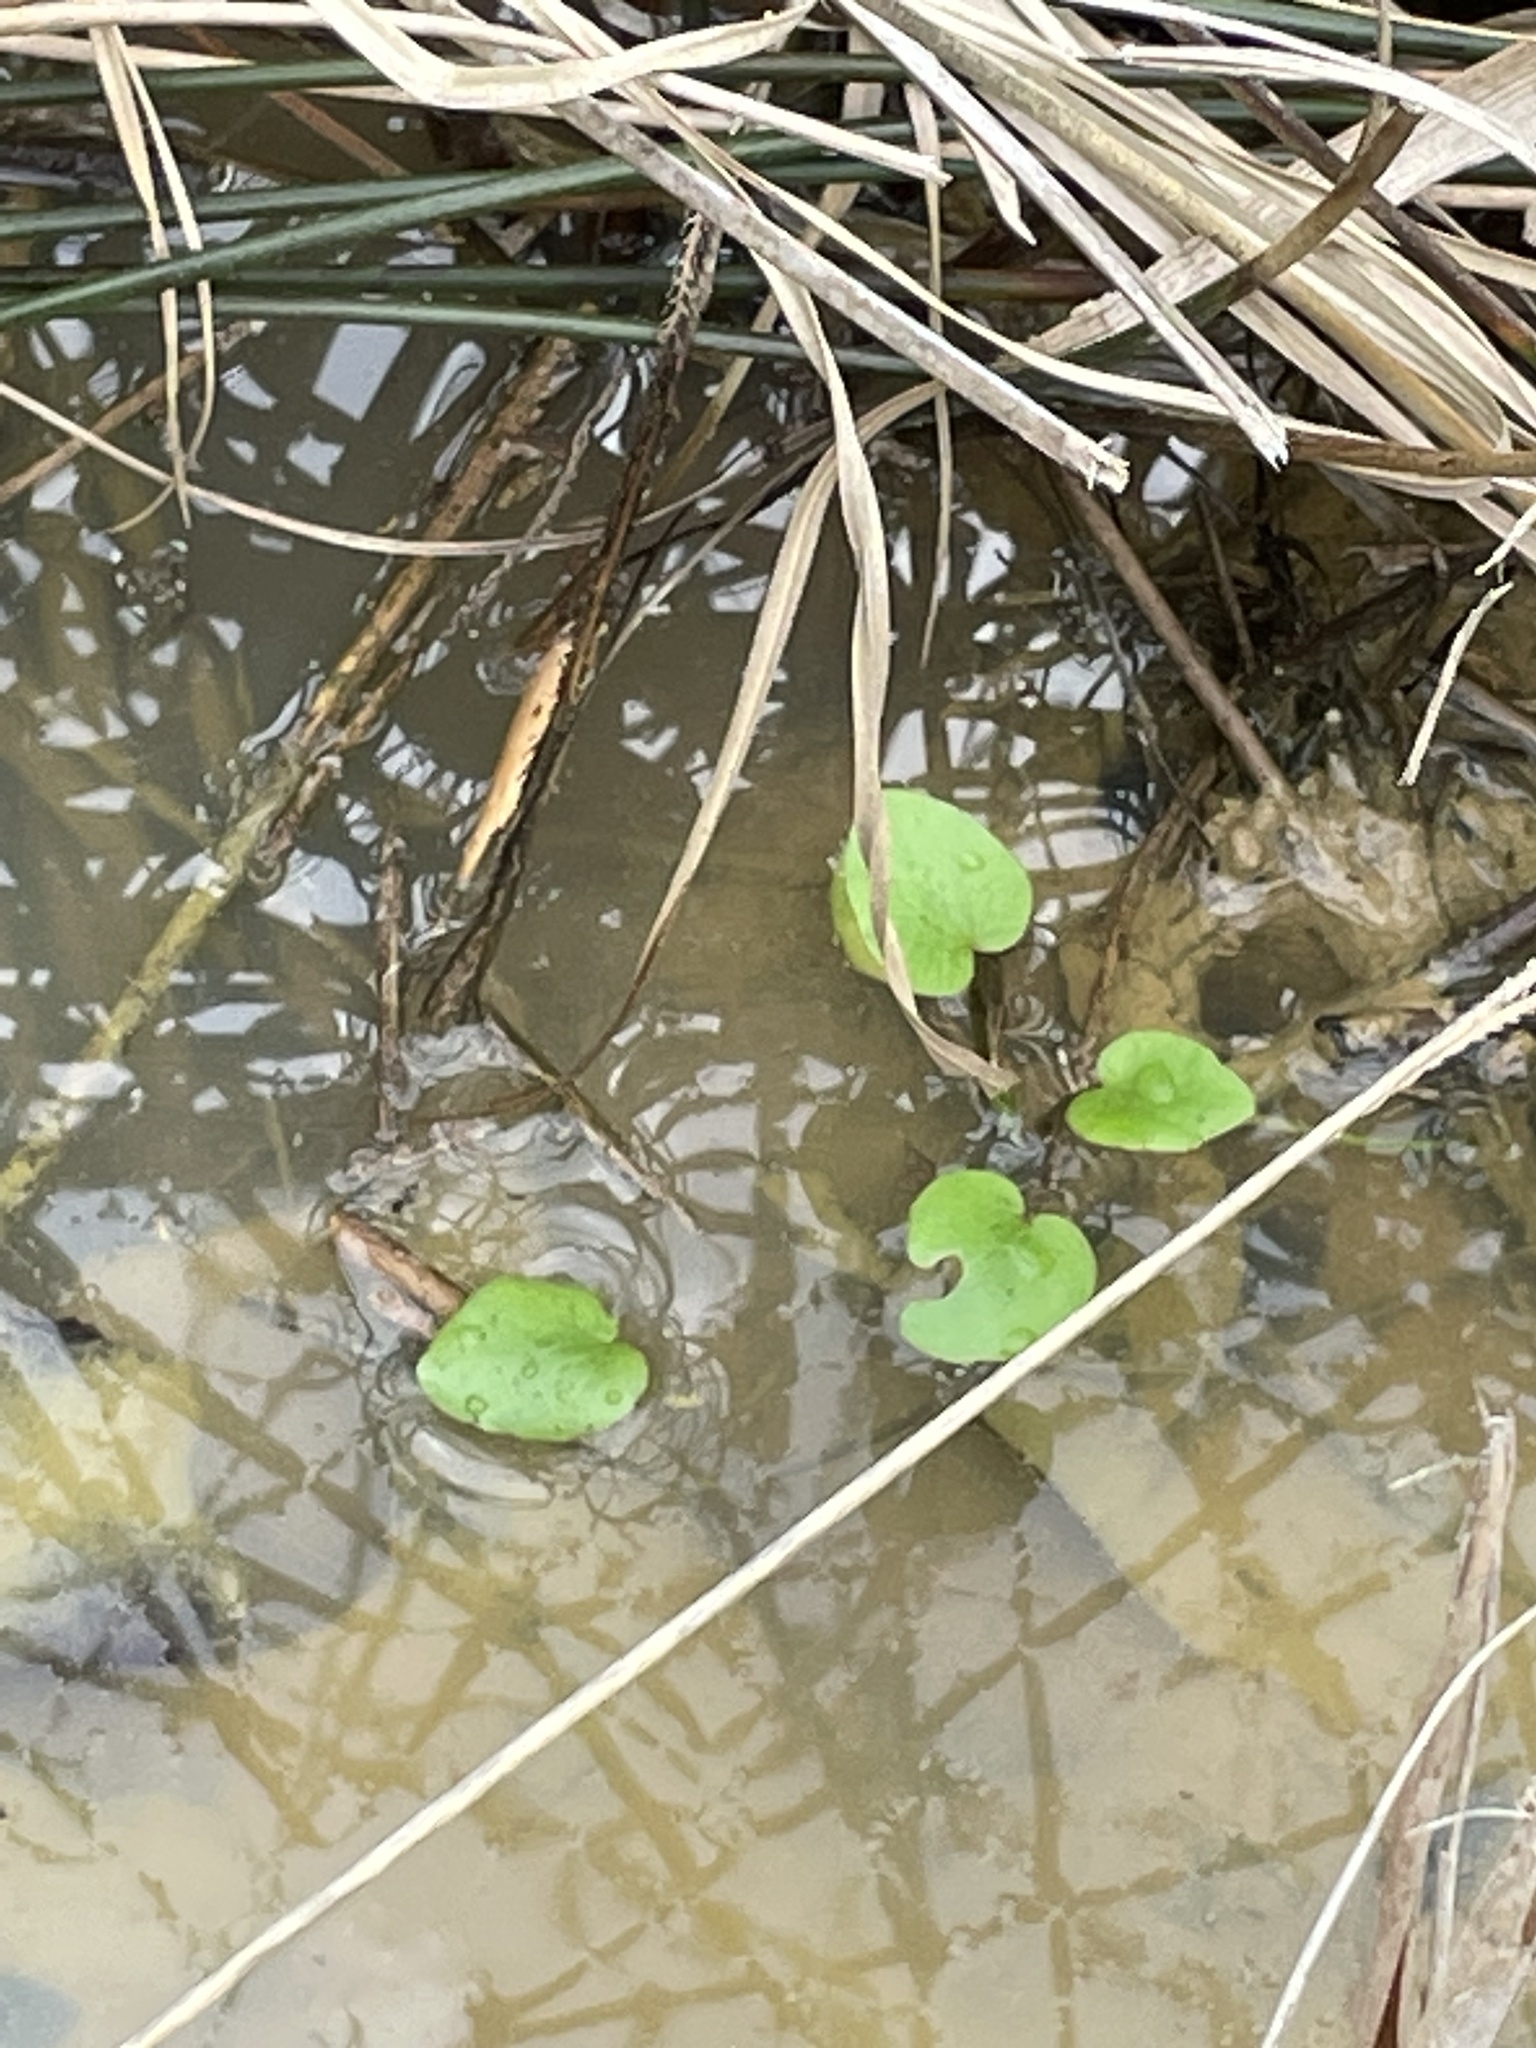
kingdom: Plantae
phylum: Tracheophyta
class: Magnoliopsida
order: Ranunculales
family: Ranunculaceae
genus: Ranunculus
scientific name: Ranunculus pusillus
